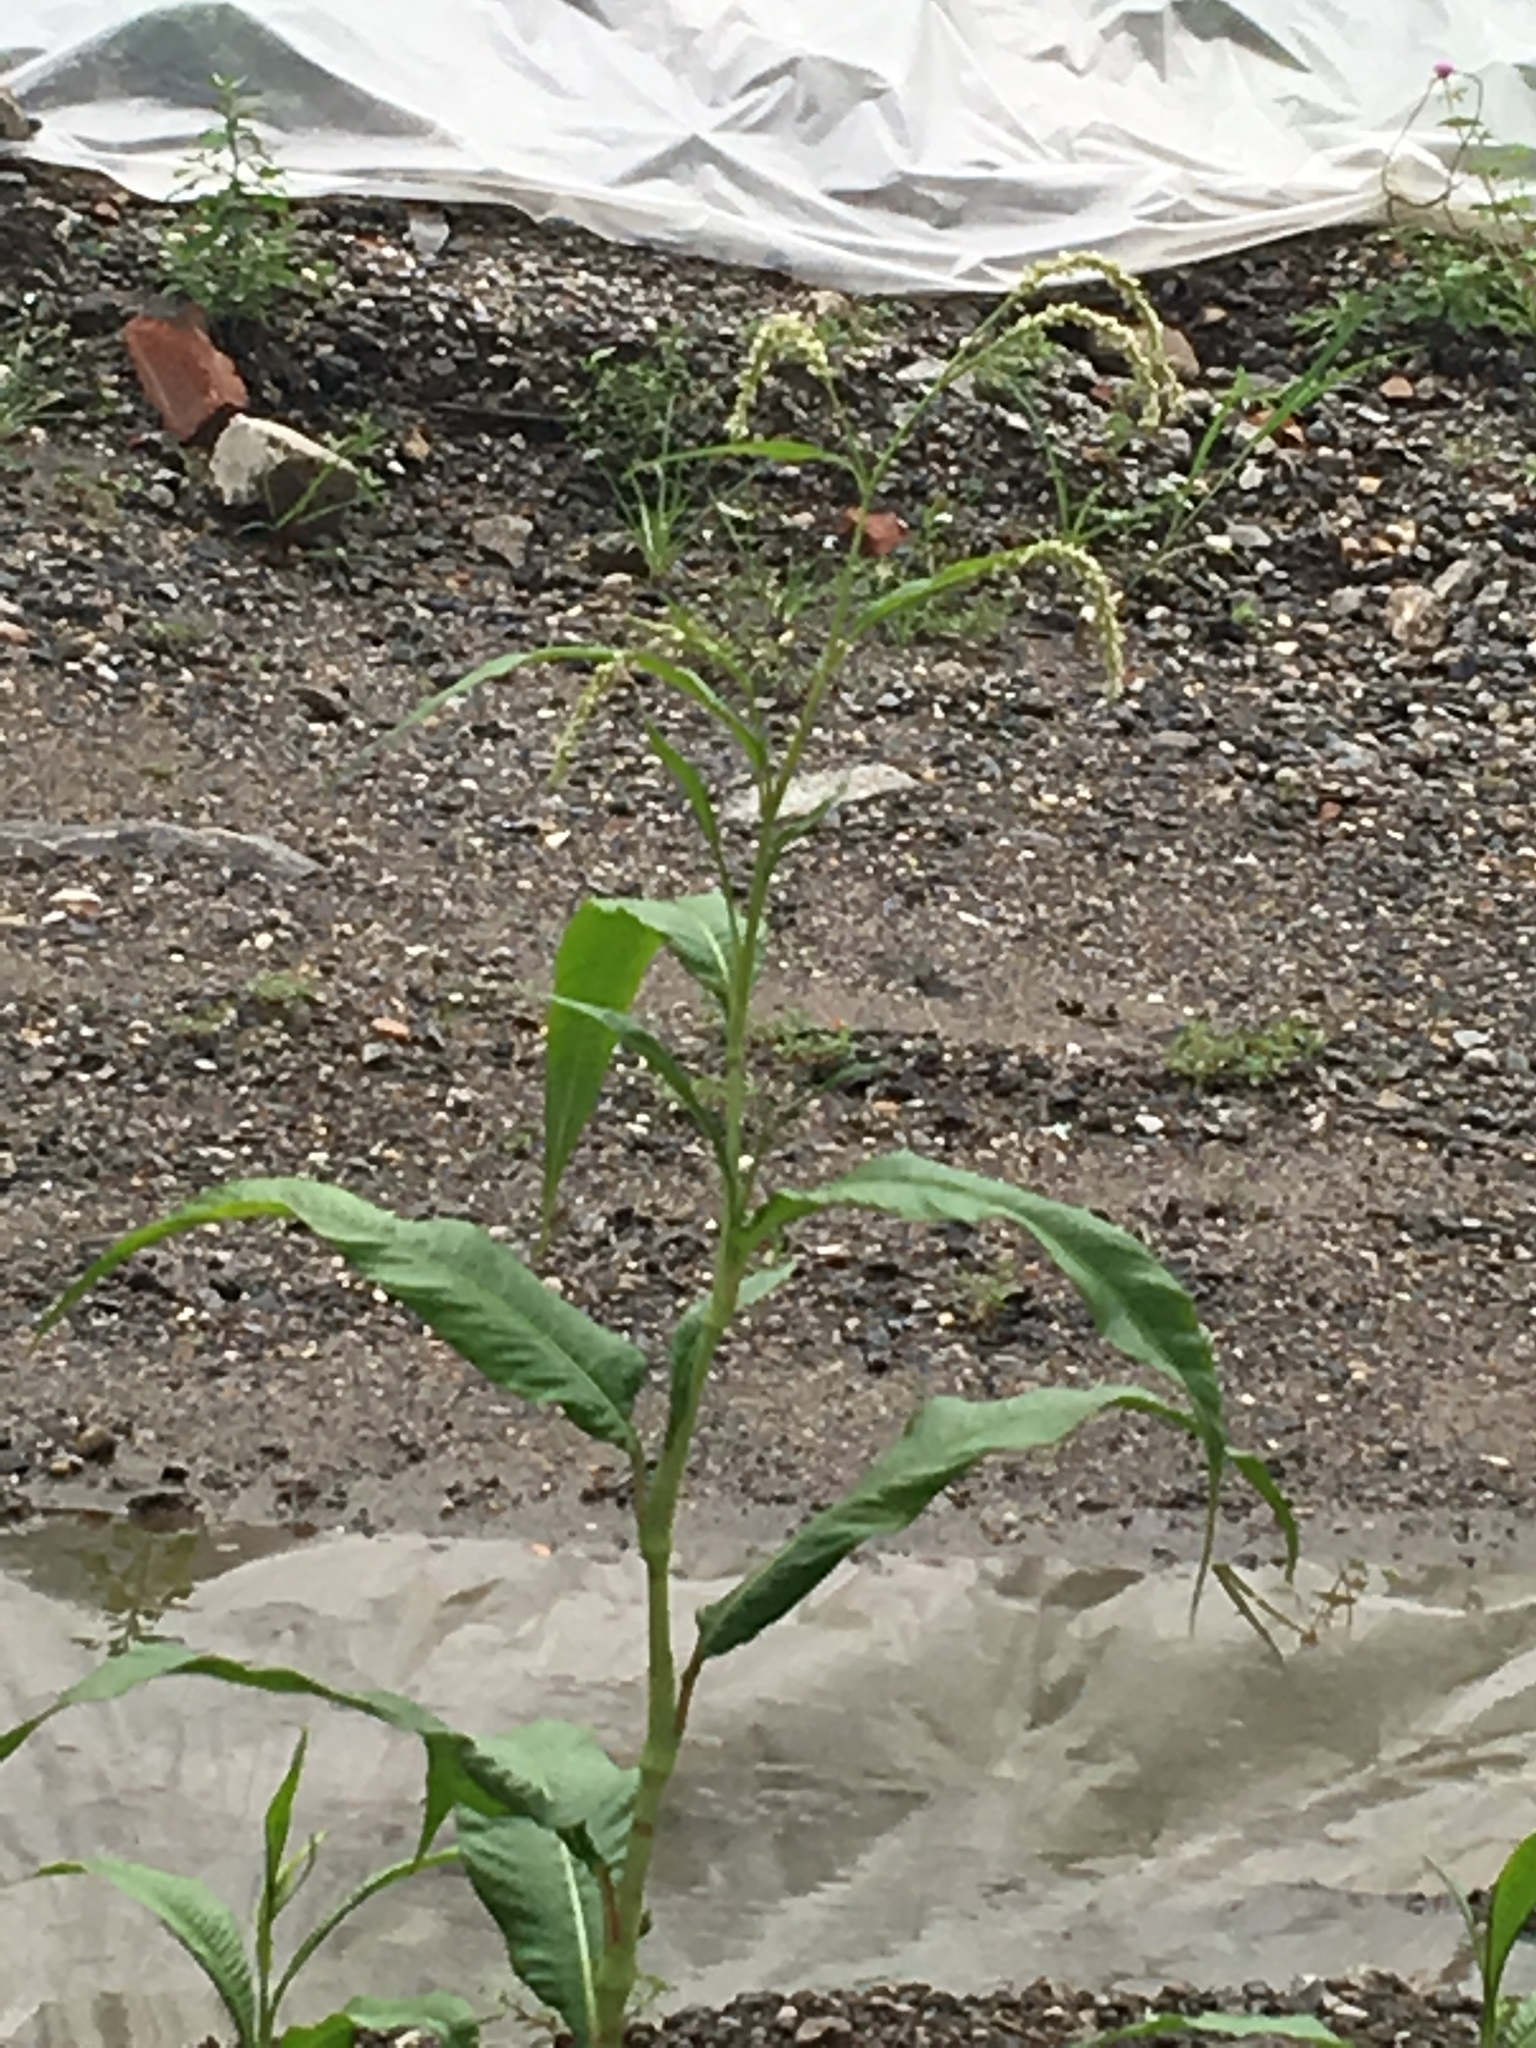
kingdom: Plantae
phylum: Tracheophyta
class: Magnoliopsida
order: Caryophyllales
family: Polygonaceae
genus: Persicaria
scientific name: Persicaria lapathifolia
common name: Curlytop knotweed
